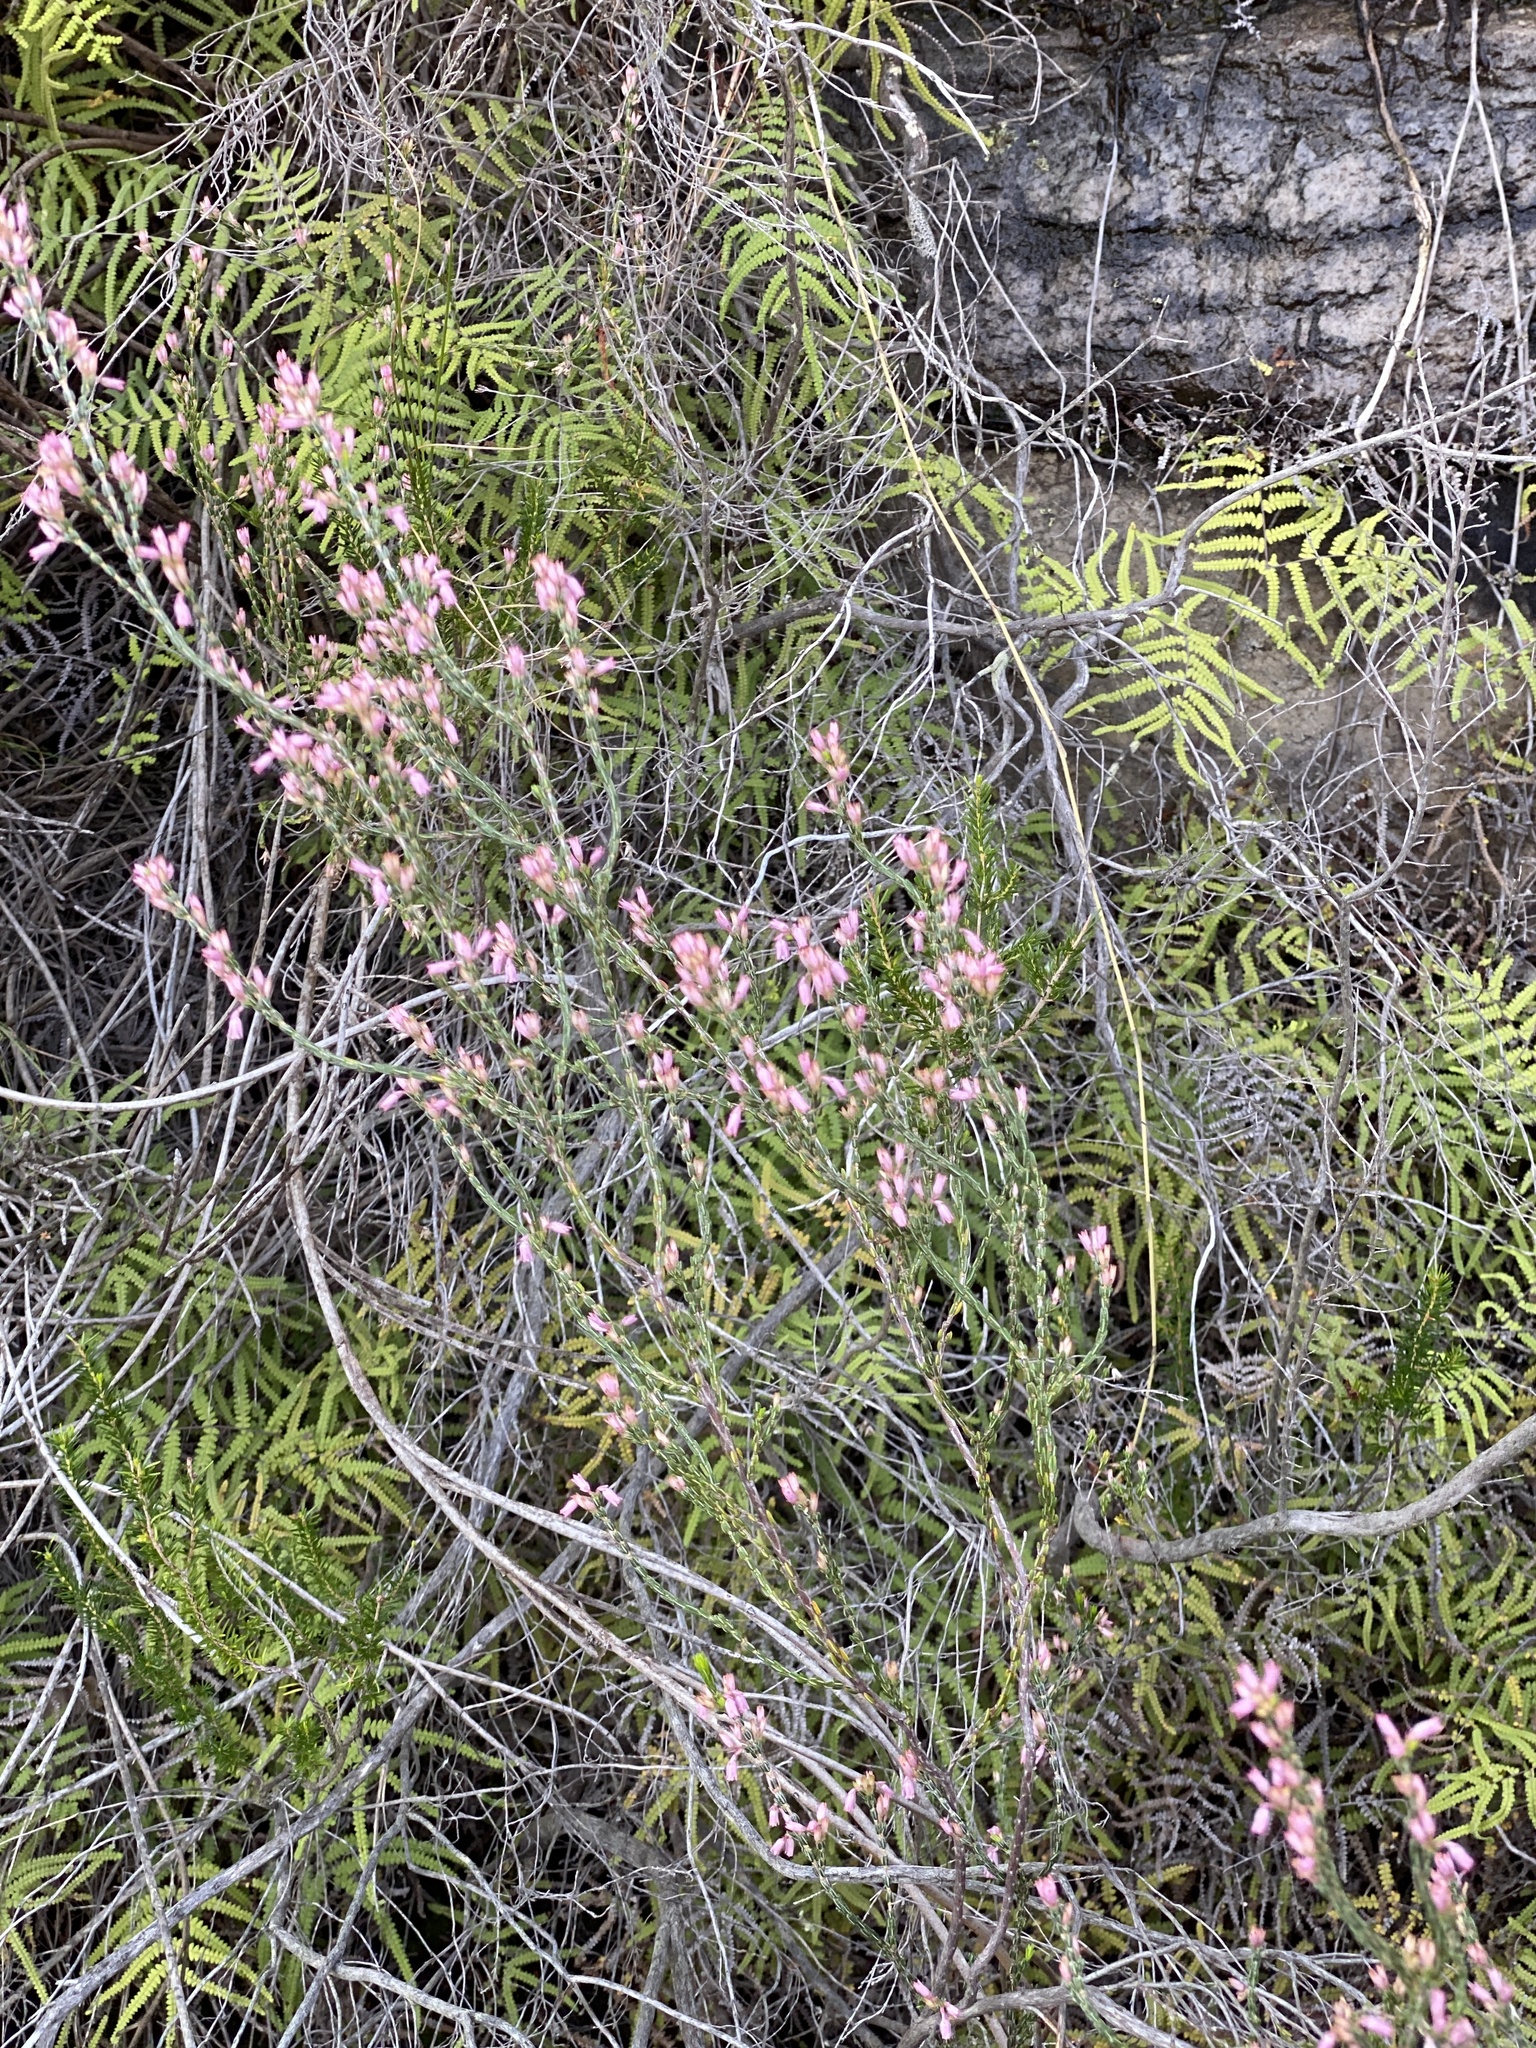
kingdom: Plantae
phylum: Tracheophyta
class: Magnoliopsida
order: Ericales
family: Ericaceae
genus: Erica
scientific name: Erica brevifolia
